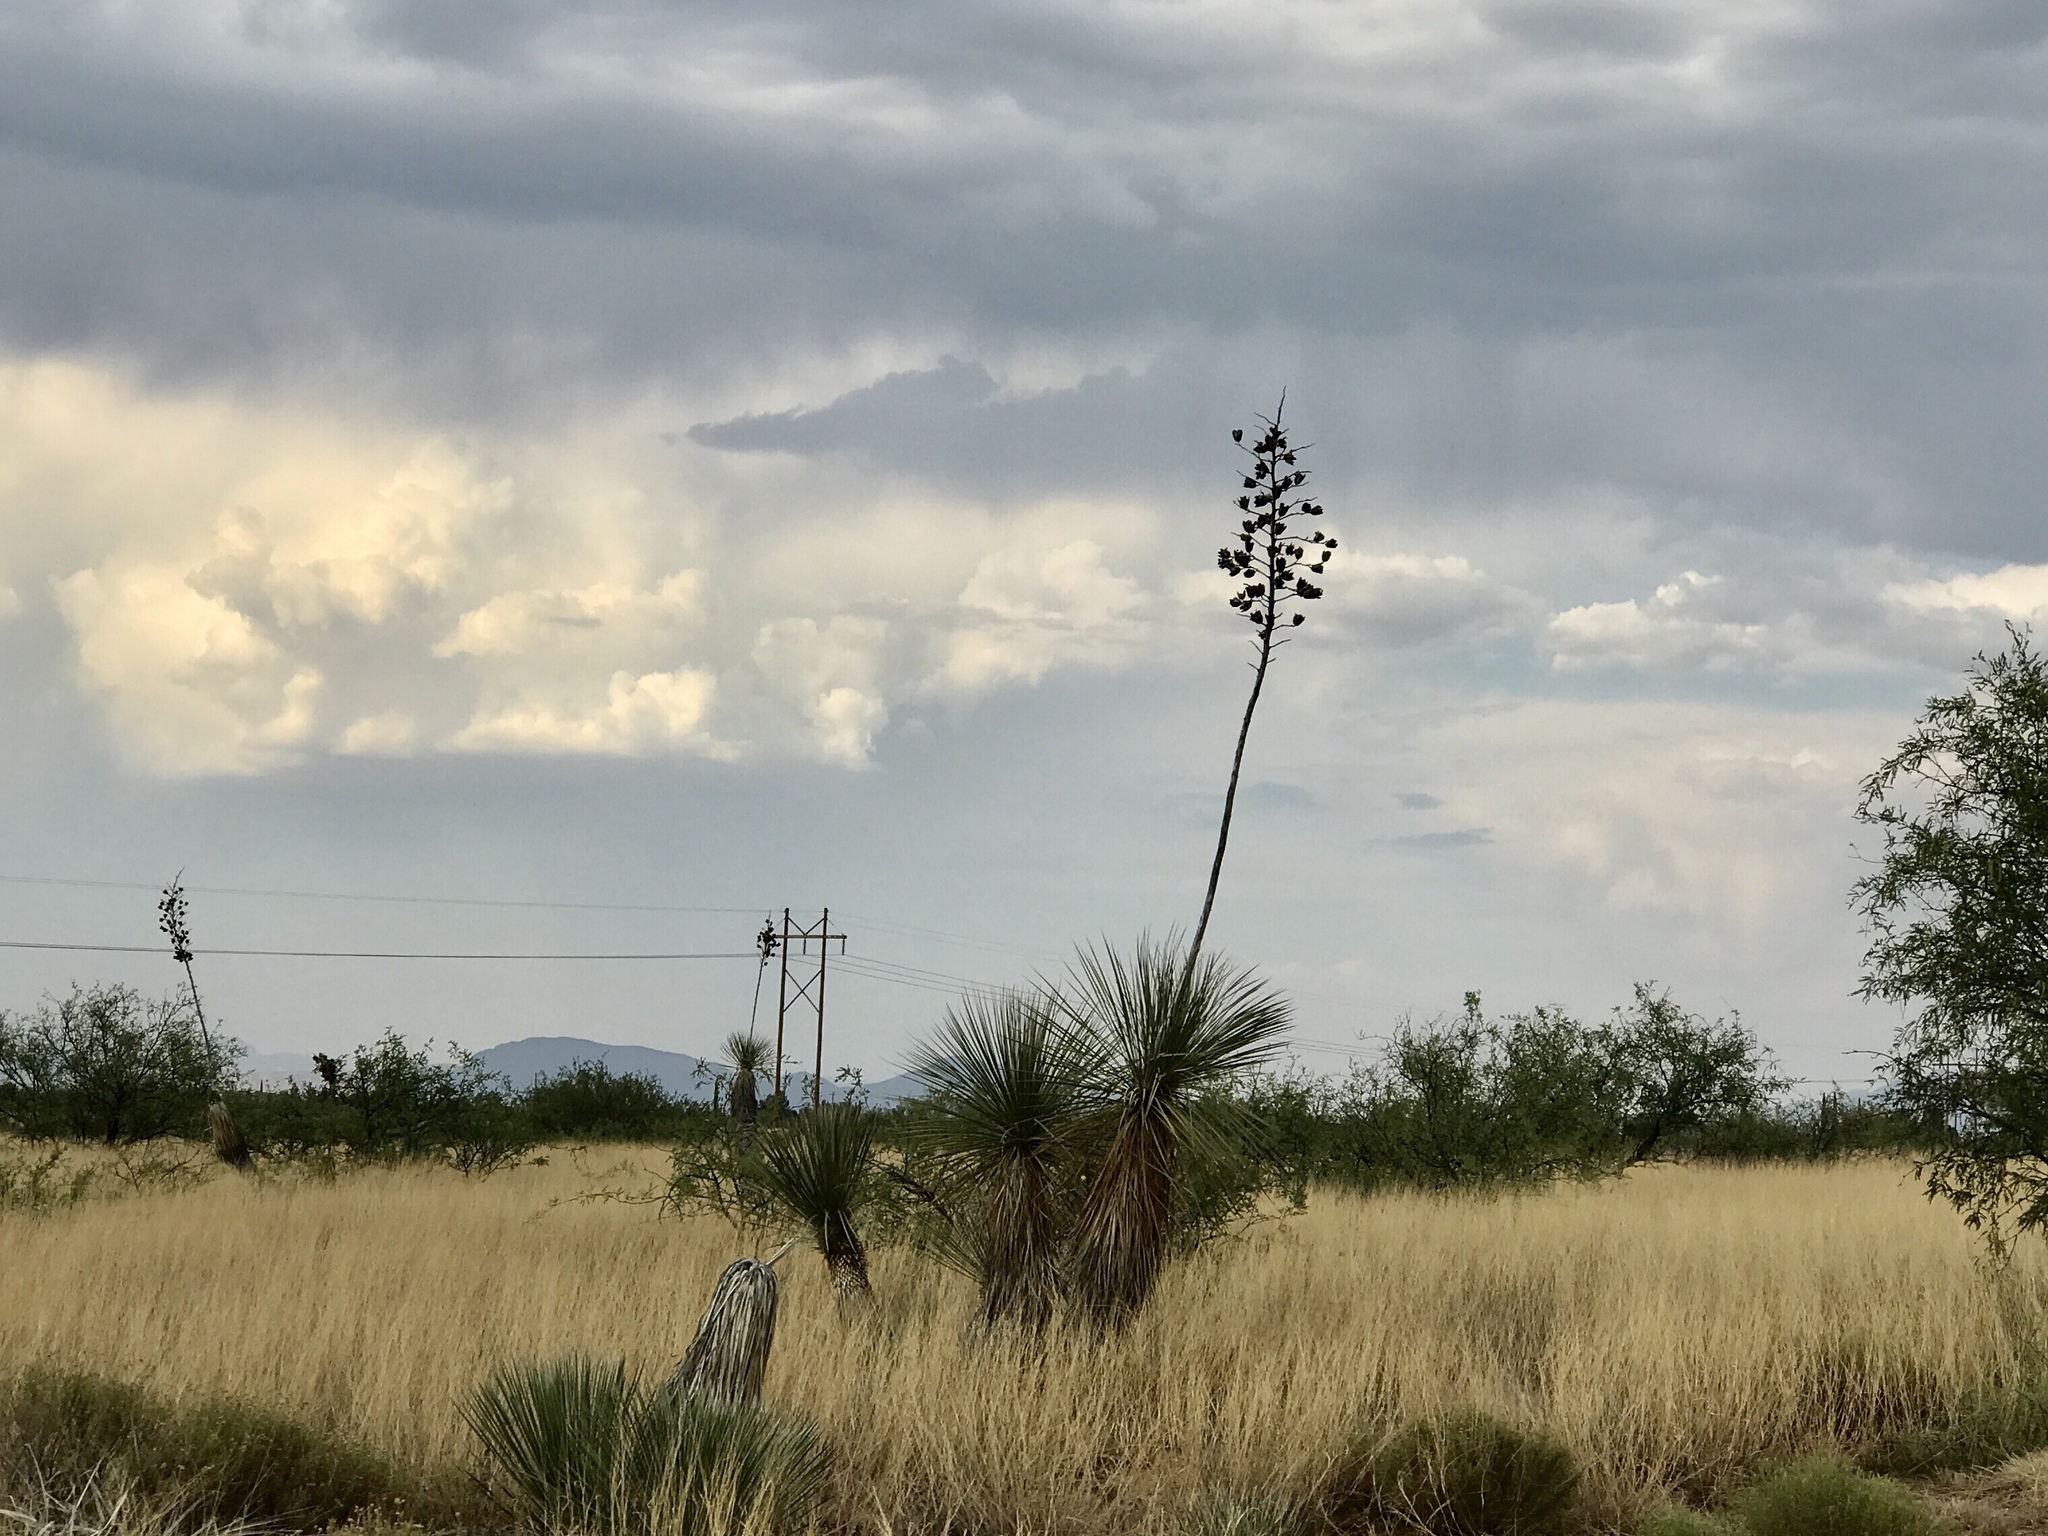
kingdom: Plantae
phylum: Tracheophyta
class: Liliopsida
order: Asparagales
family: Asparagaceae
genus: Yucca
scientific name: Yucca elata
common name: Palmella
